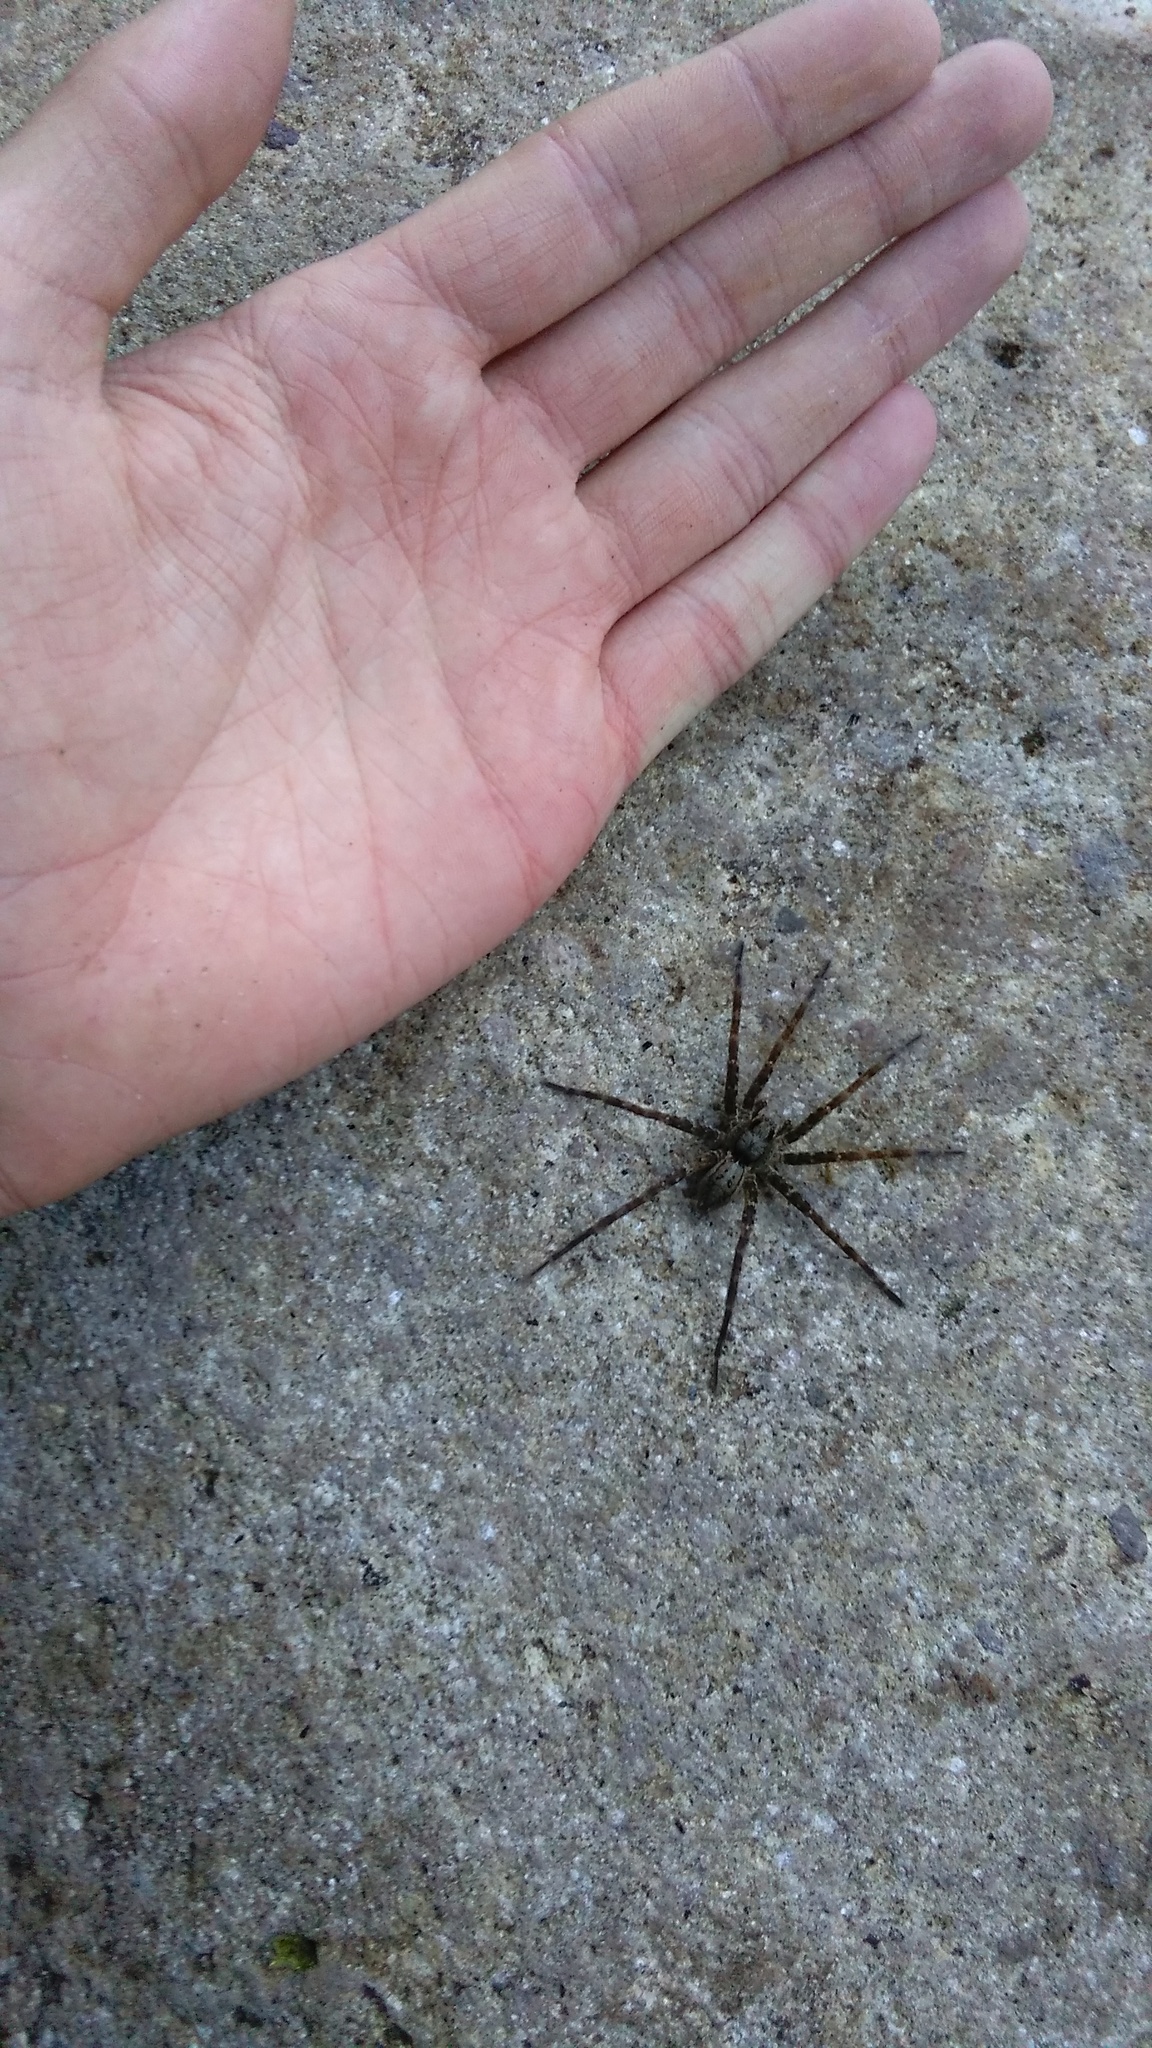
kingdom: Animalia
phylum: Arthropoda
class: Arachnida
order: Araneae
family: Pisauridae
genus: Dolomedes
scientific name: Dolomedes dondalei
